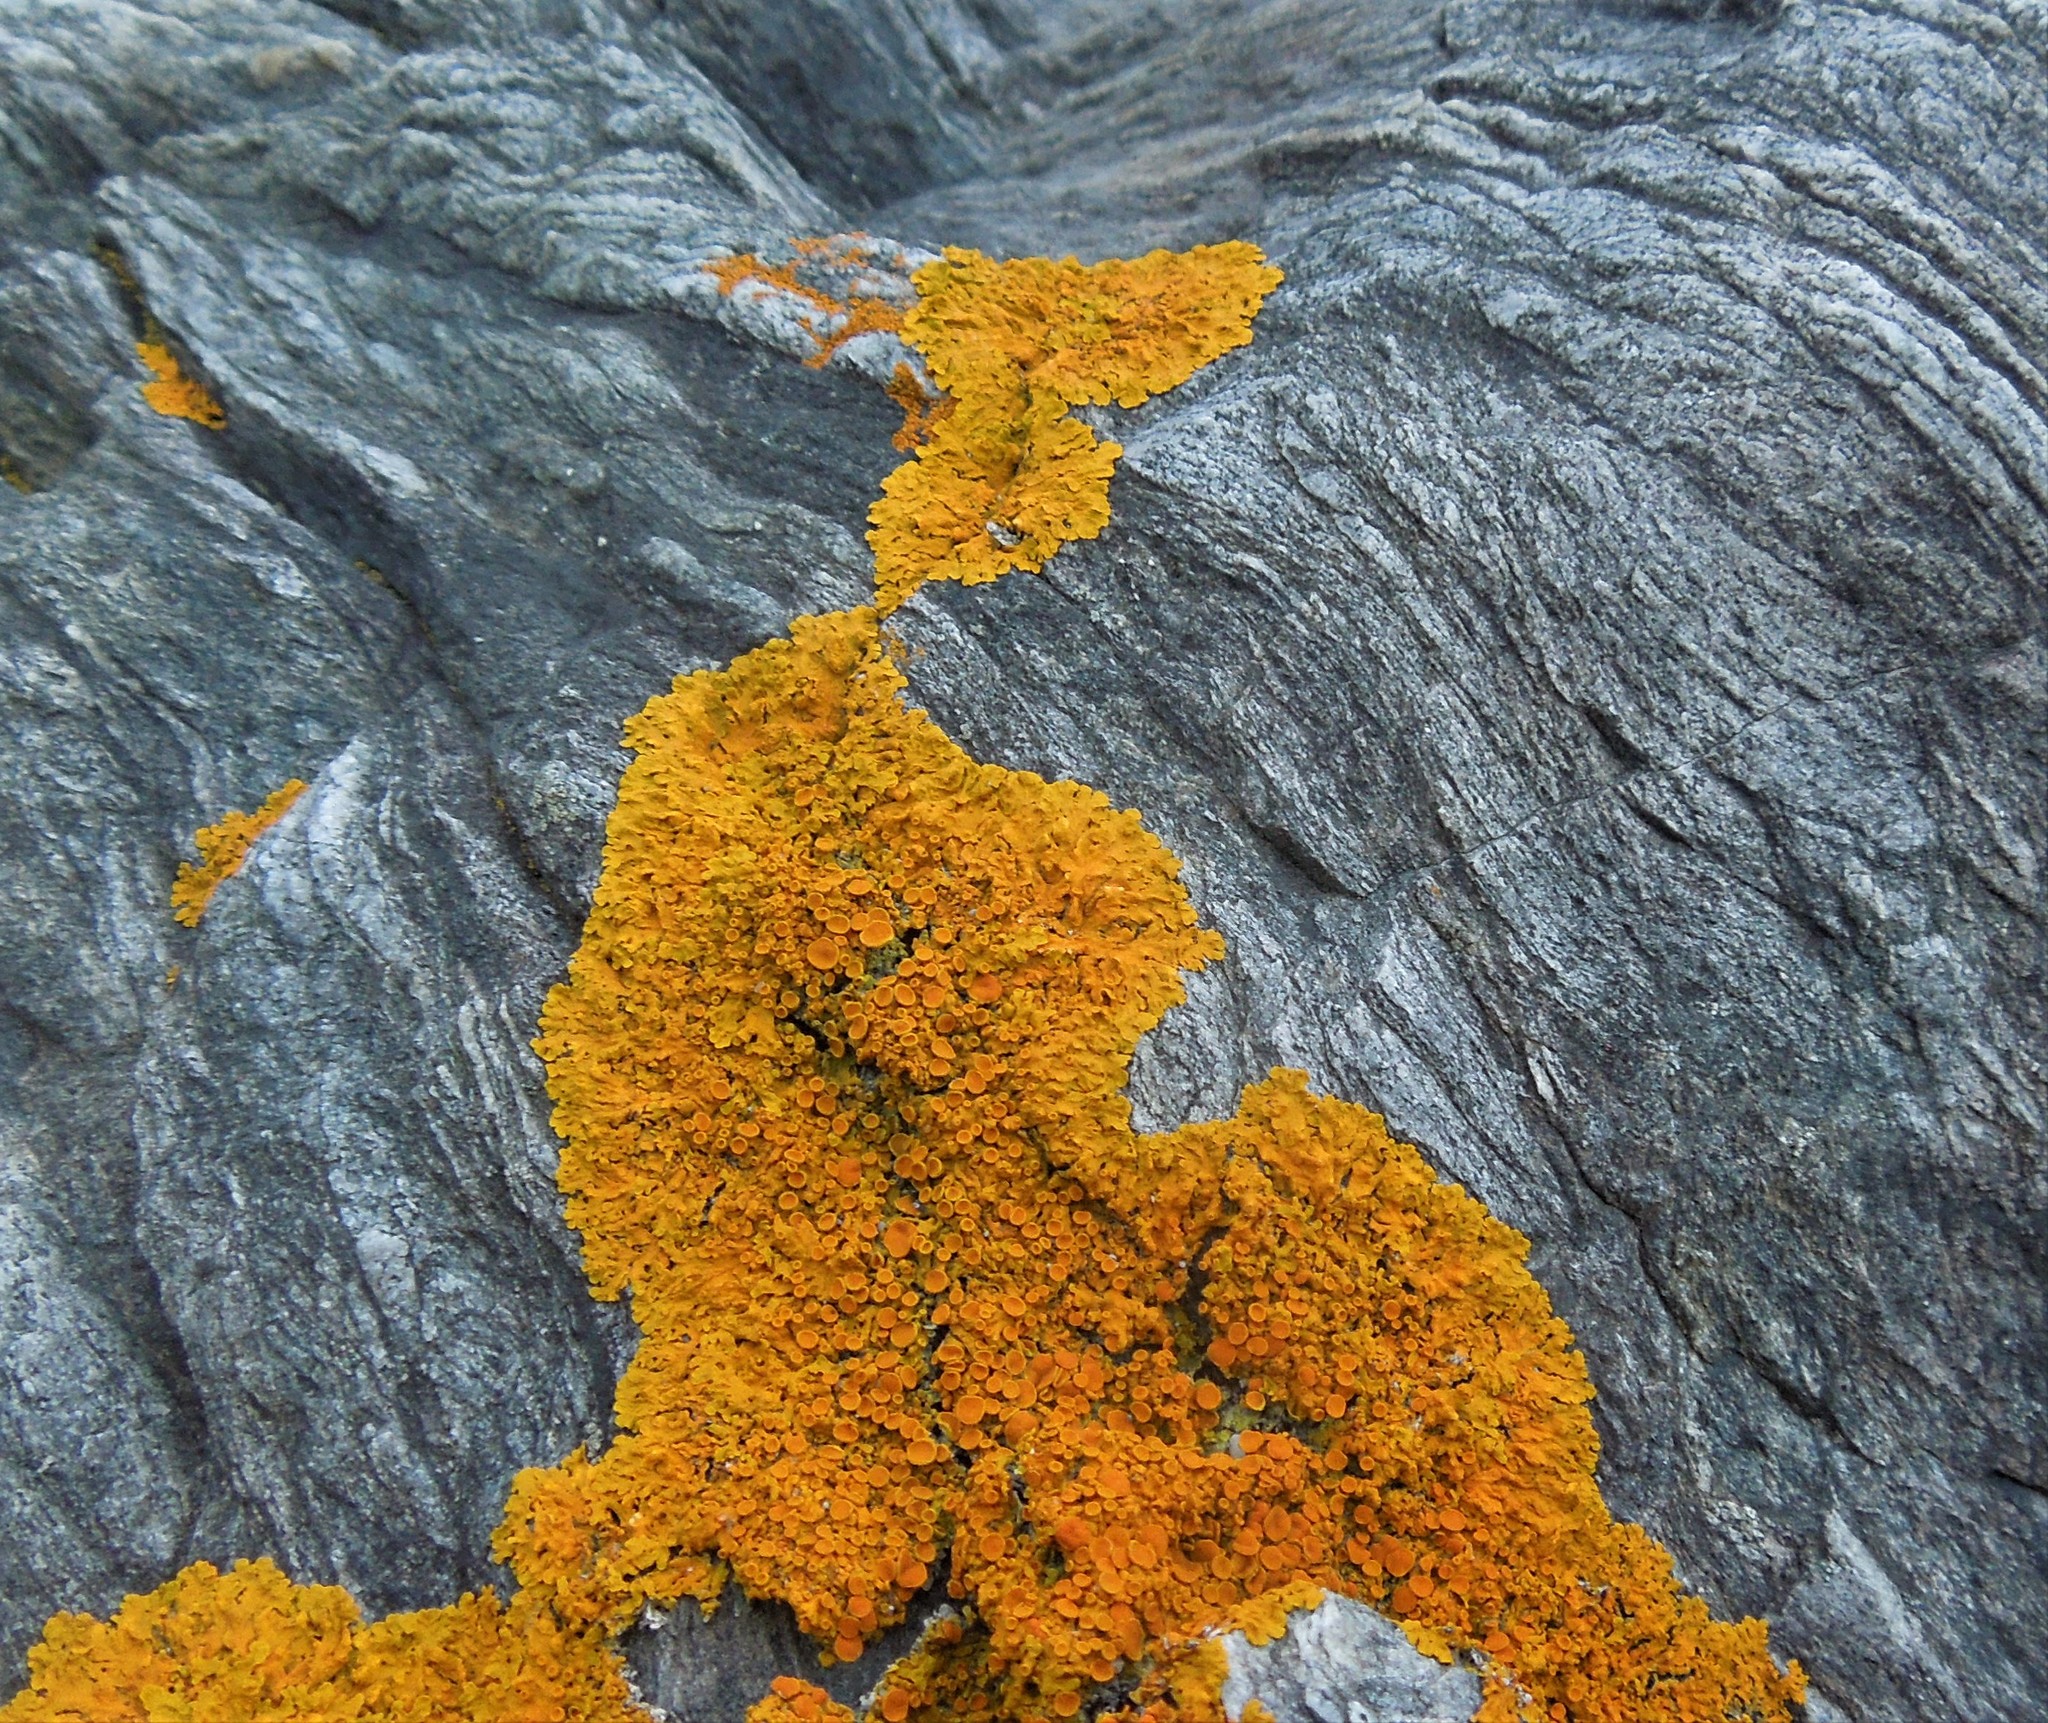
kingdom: Fungi
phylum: Ascomycota
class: Lecanoromycetes
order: Teloschistales
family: Teloschistaceae
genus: Xanthoria
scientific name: Xanthoria parietina
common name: Common orange lichen
